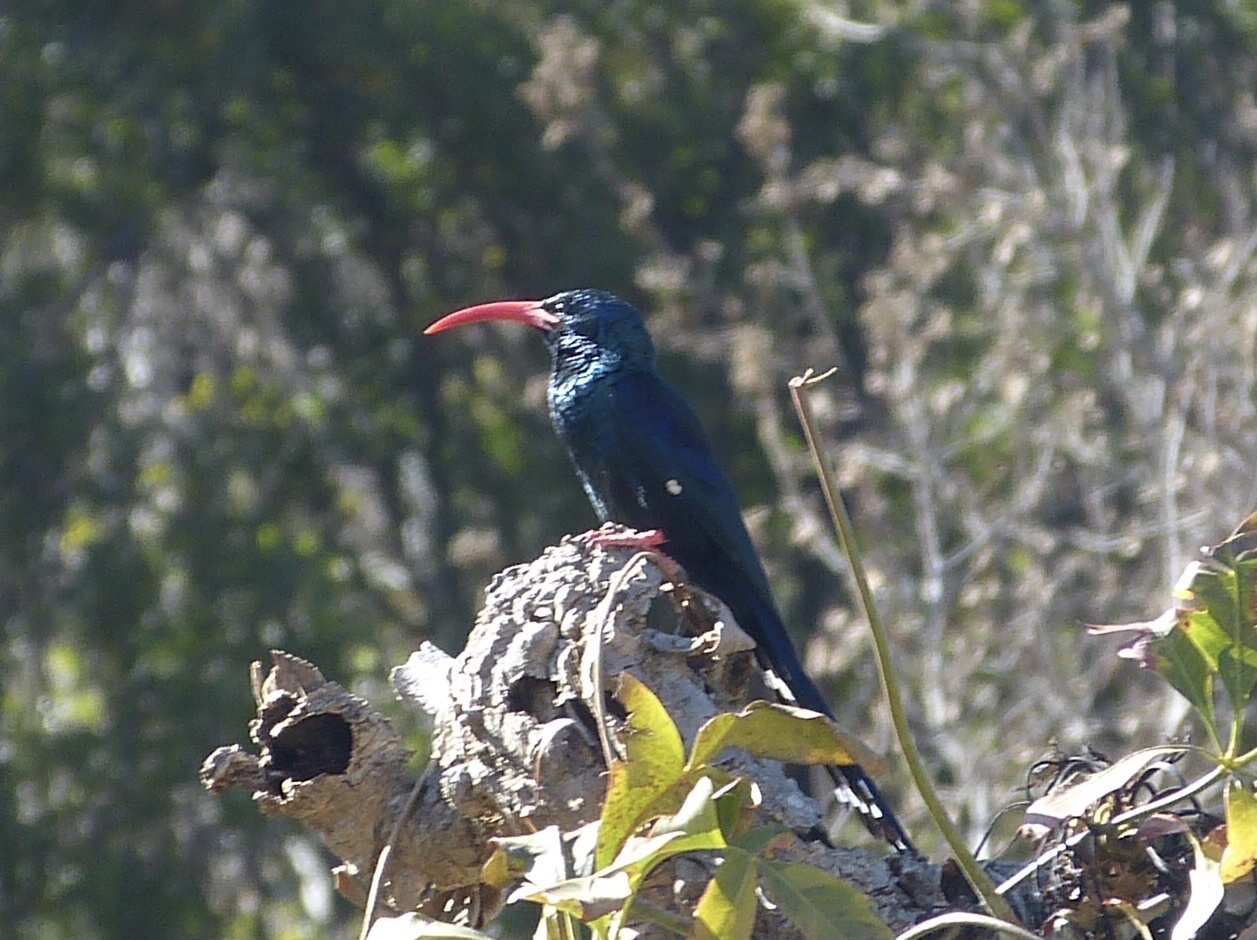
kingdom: Animalia
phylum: Chordata
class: Aves
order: Bucerotiformes
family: Phoeniculidae
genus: Phoeniculus
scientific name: Phoeniculus purpureus
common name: Green woodhoopoe
